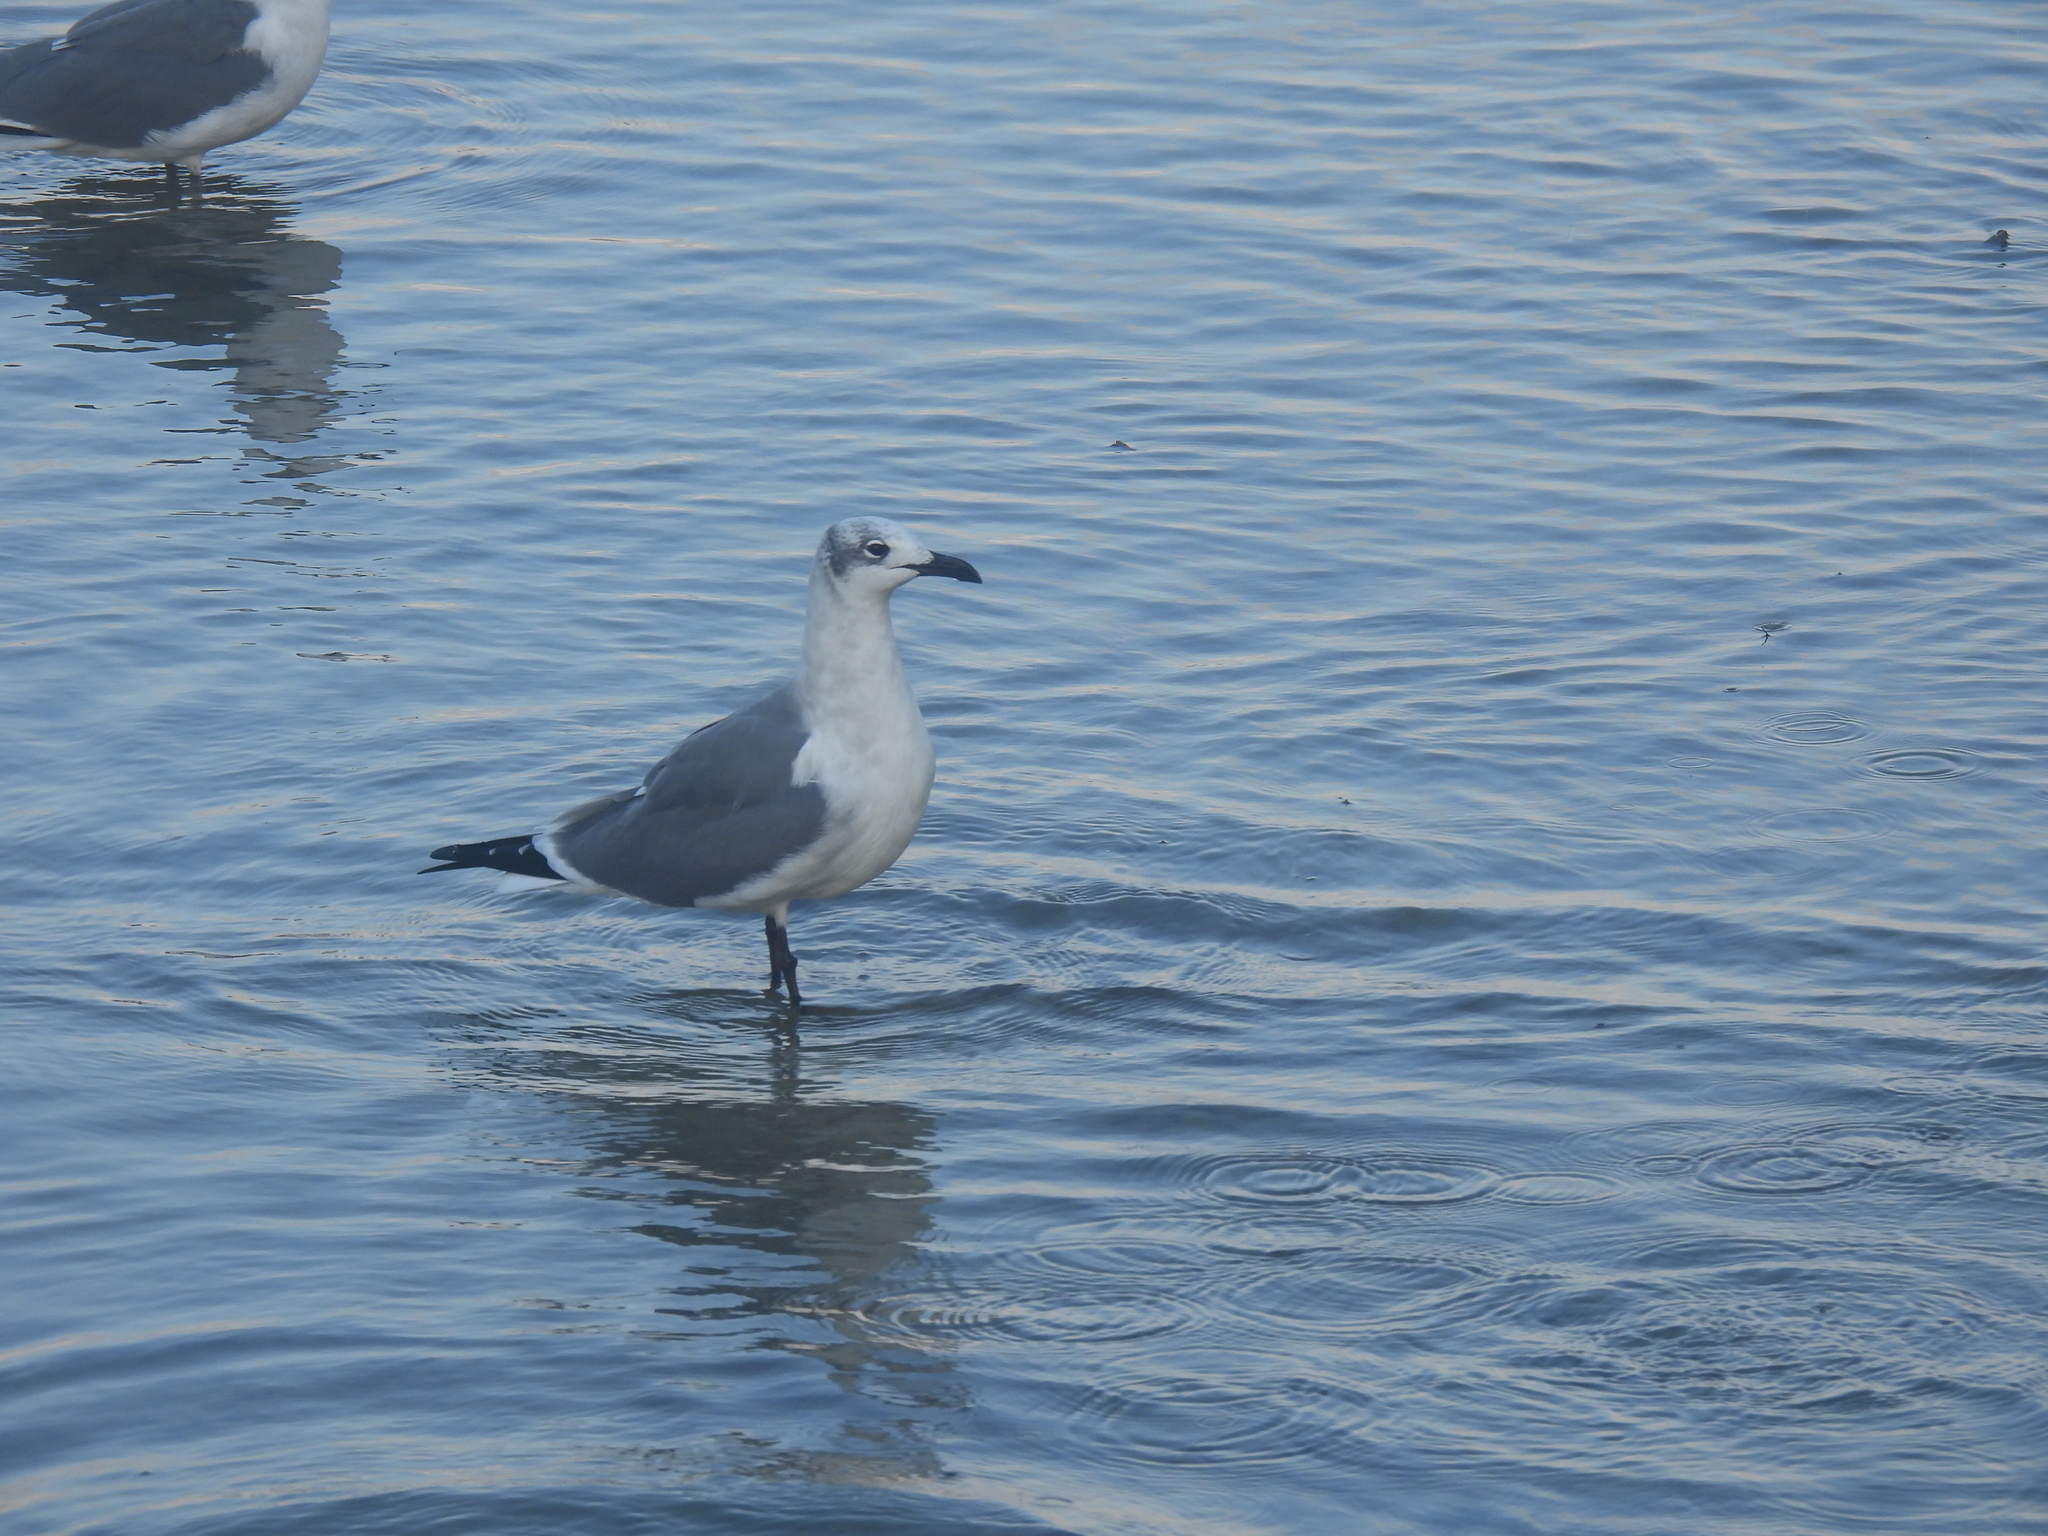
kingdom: Animalia
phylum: Chordata
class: Aves
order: Charadriiformes
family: Laridae
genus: Leucophaeus
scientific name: Leucophaeus atricilla
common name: Laughing gull
